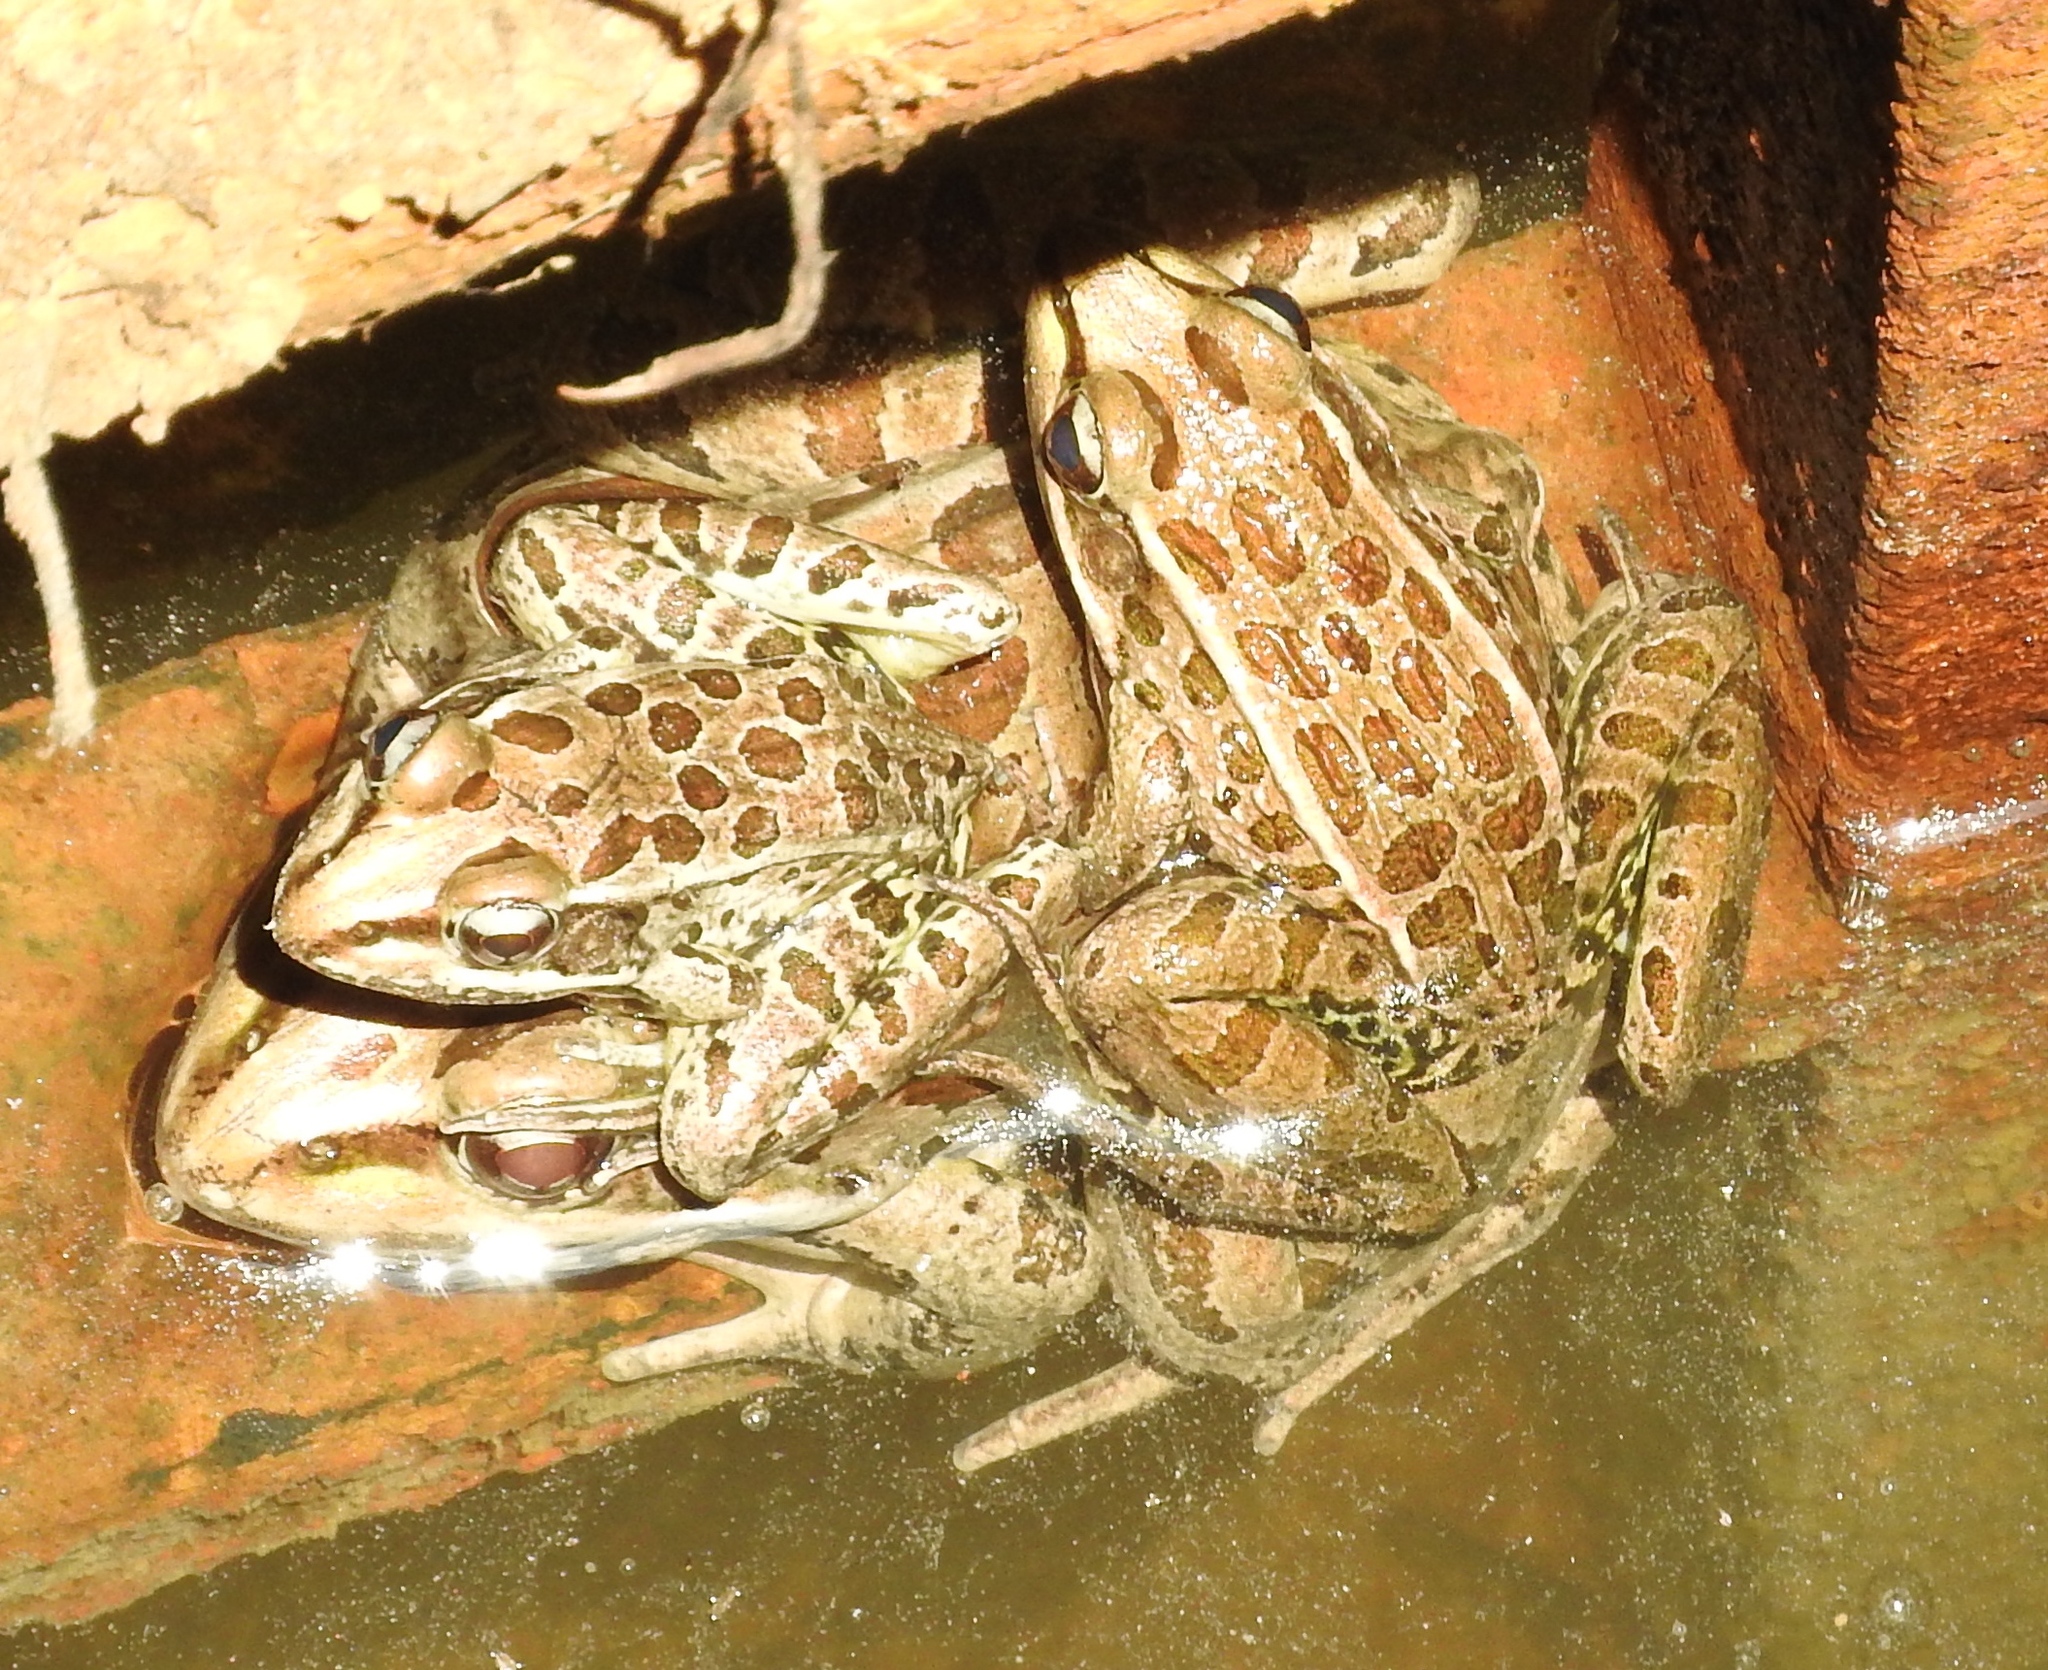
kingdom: Animalia
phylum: Chordata
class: Amphibia
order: Anura
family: Ranidae
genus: Lithobates
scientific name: Lithobates magnaocularis
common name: Northwest mexico leopard frog
